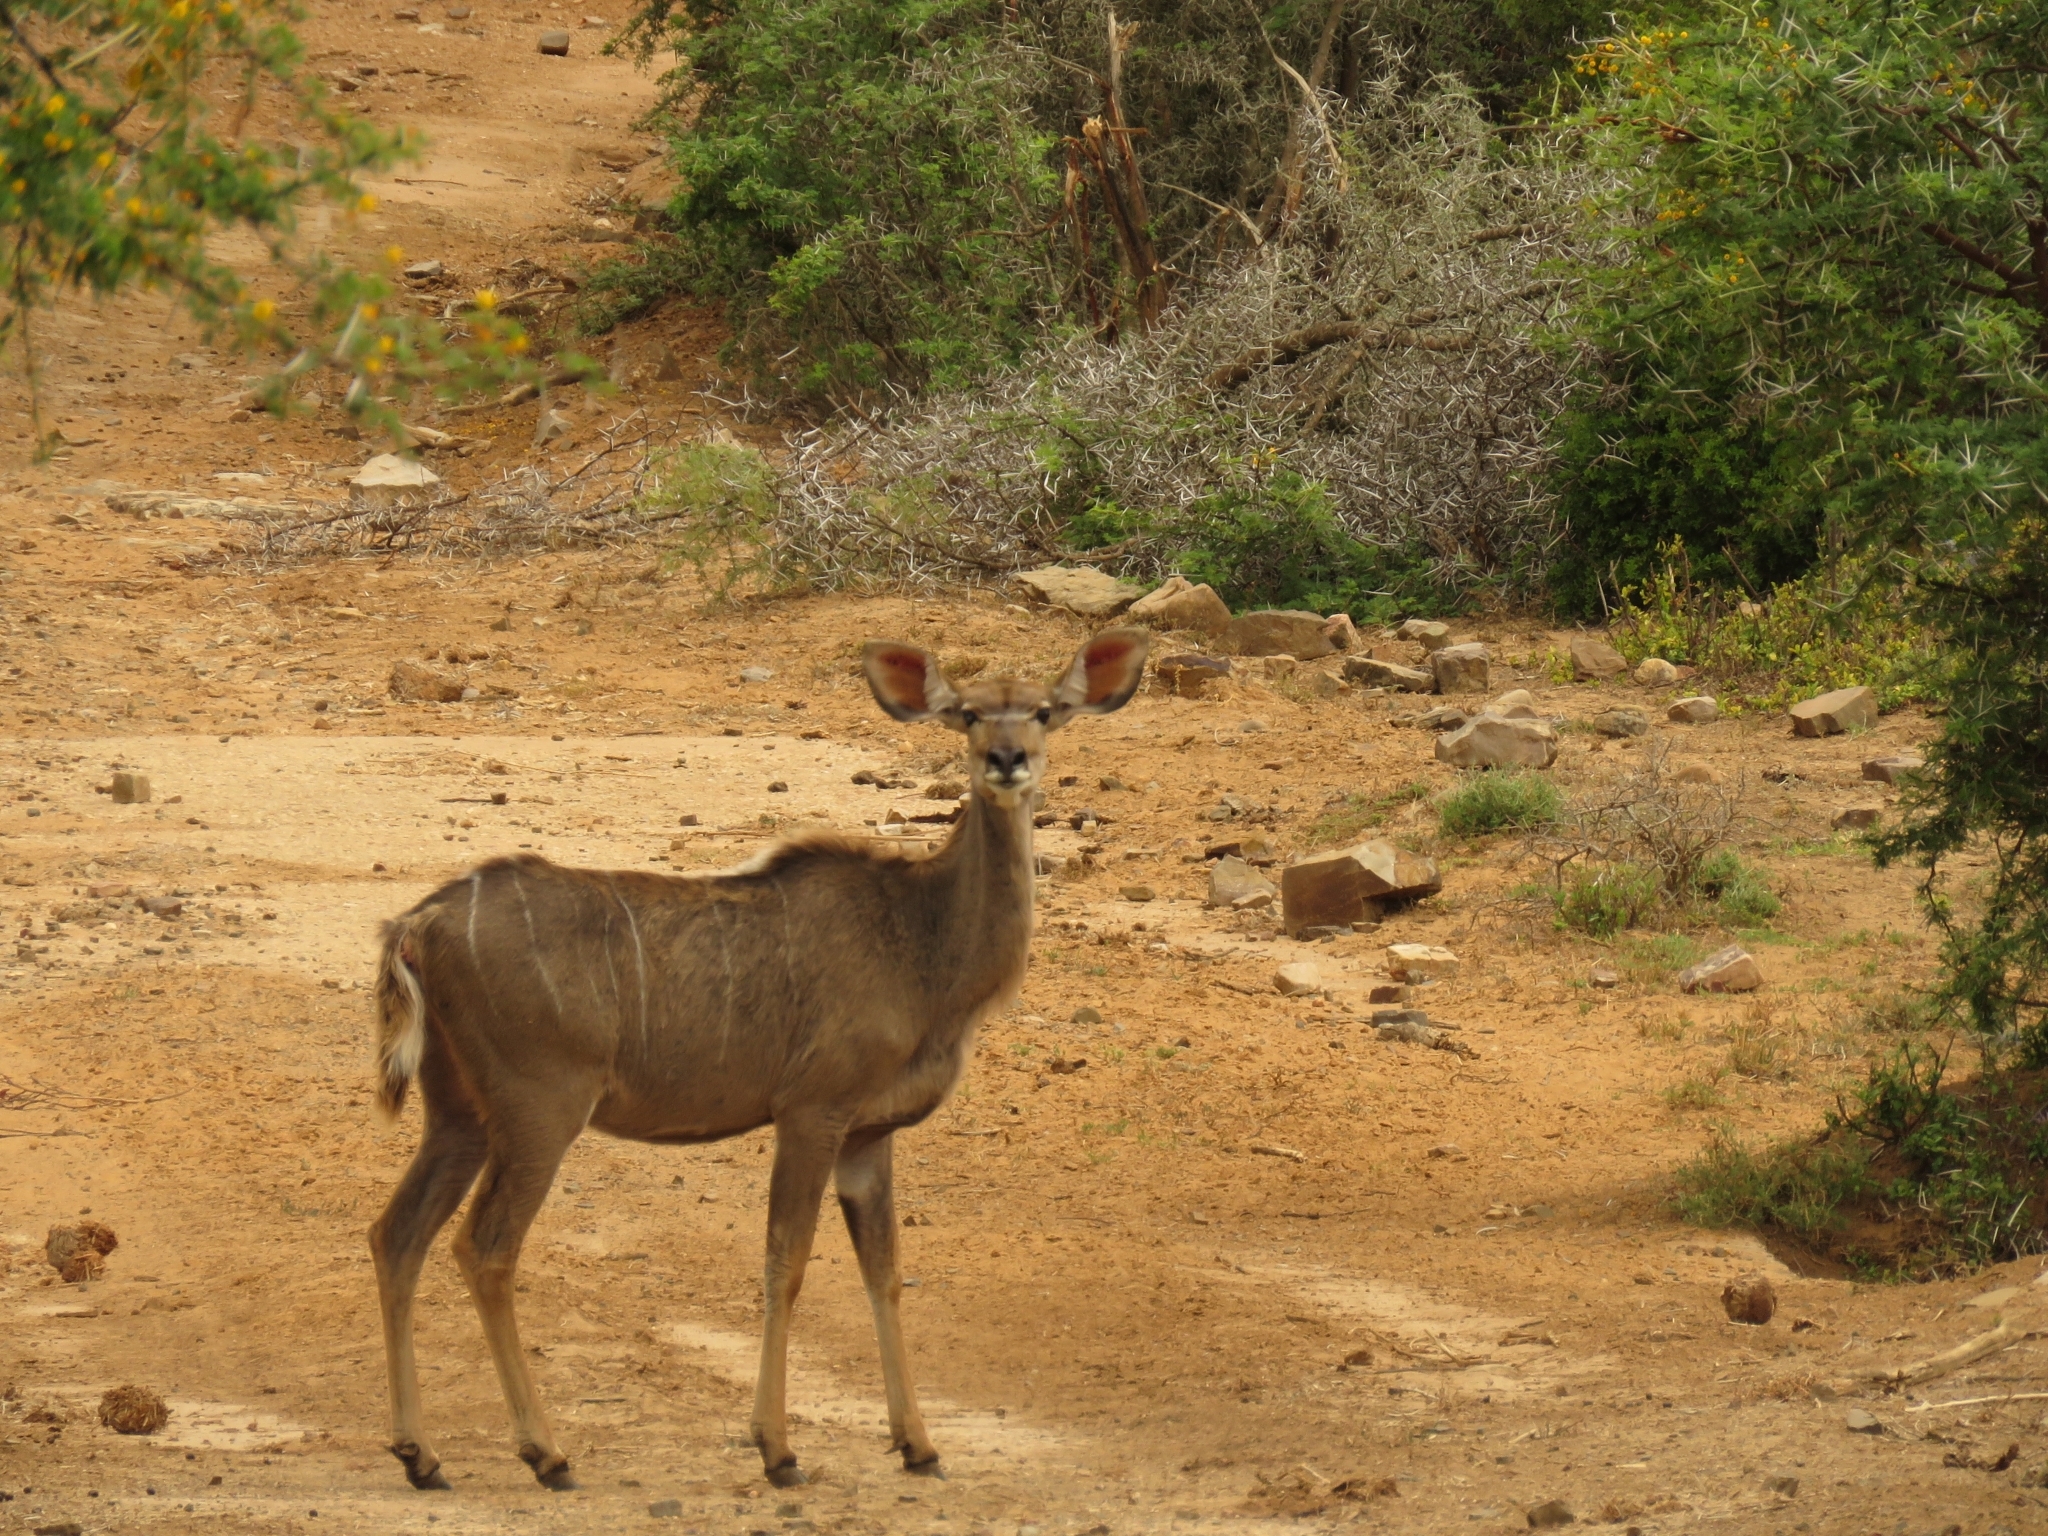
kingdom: Animalia
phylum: Chordata
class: Mammalia
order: Artiodactyla
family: Bovidae
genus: Tragelaphus
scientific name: Tragelaphus strepsiceros
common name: Greater kudu
